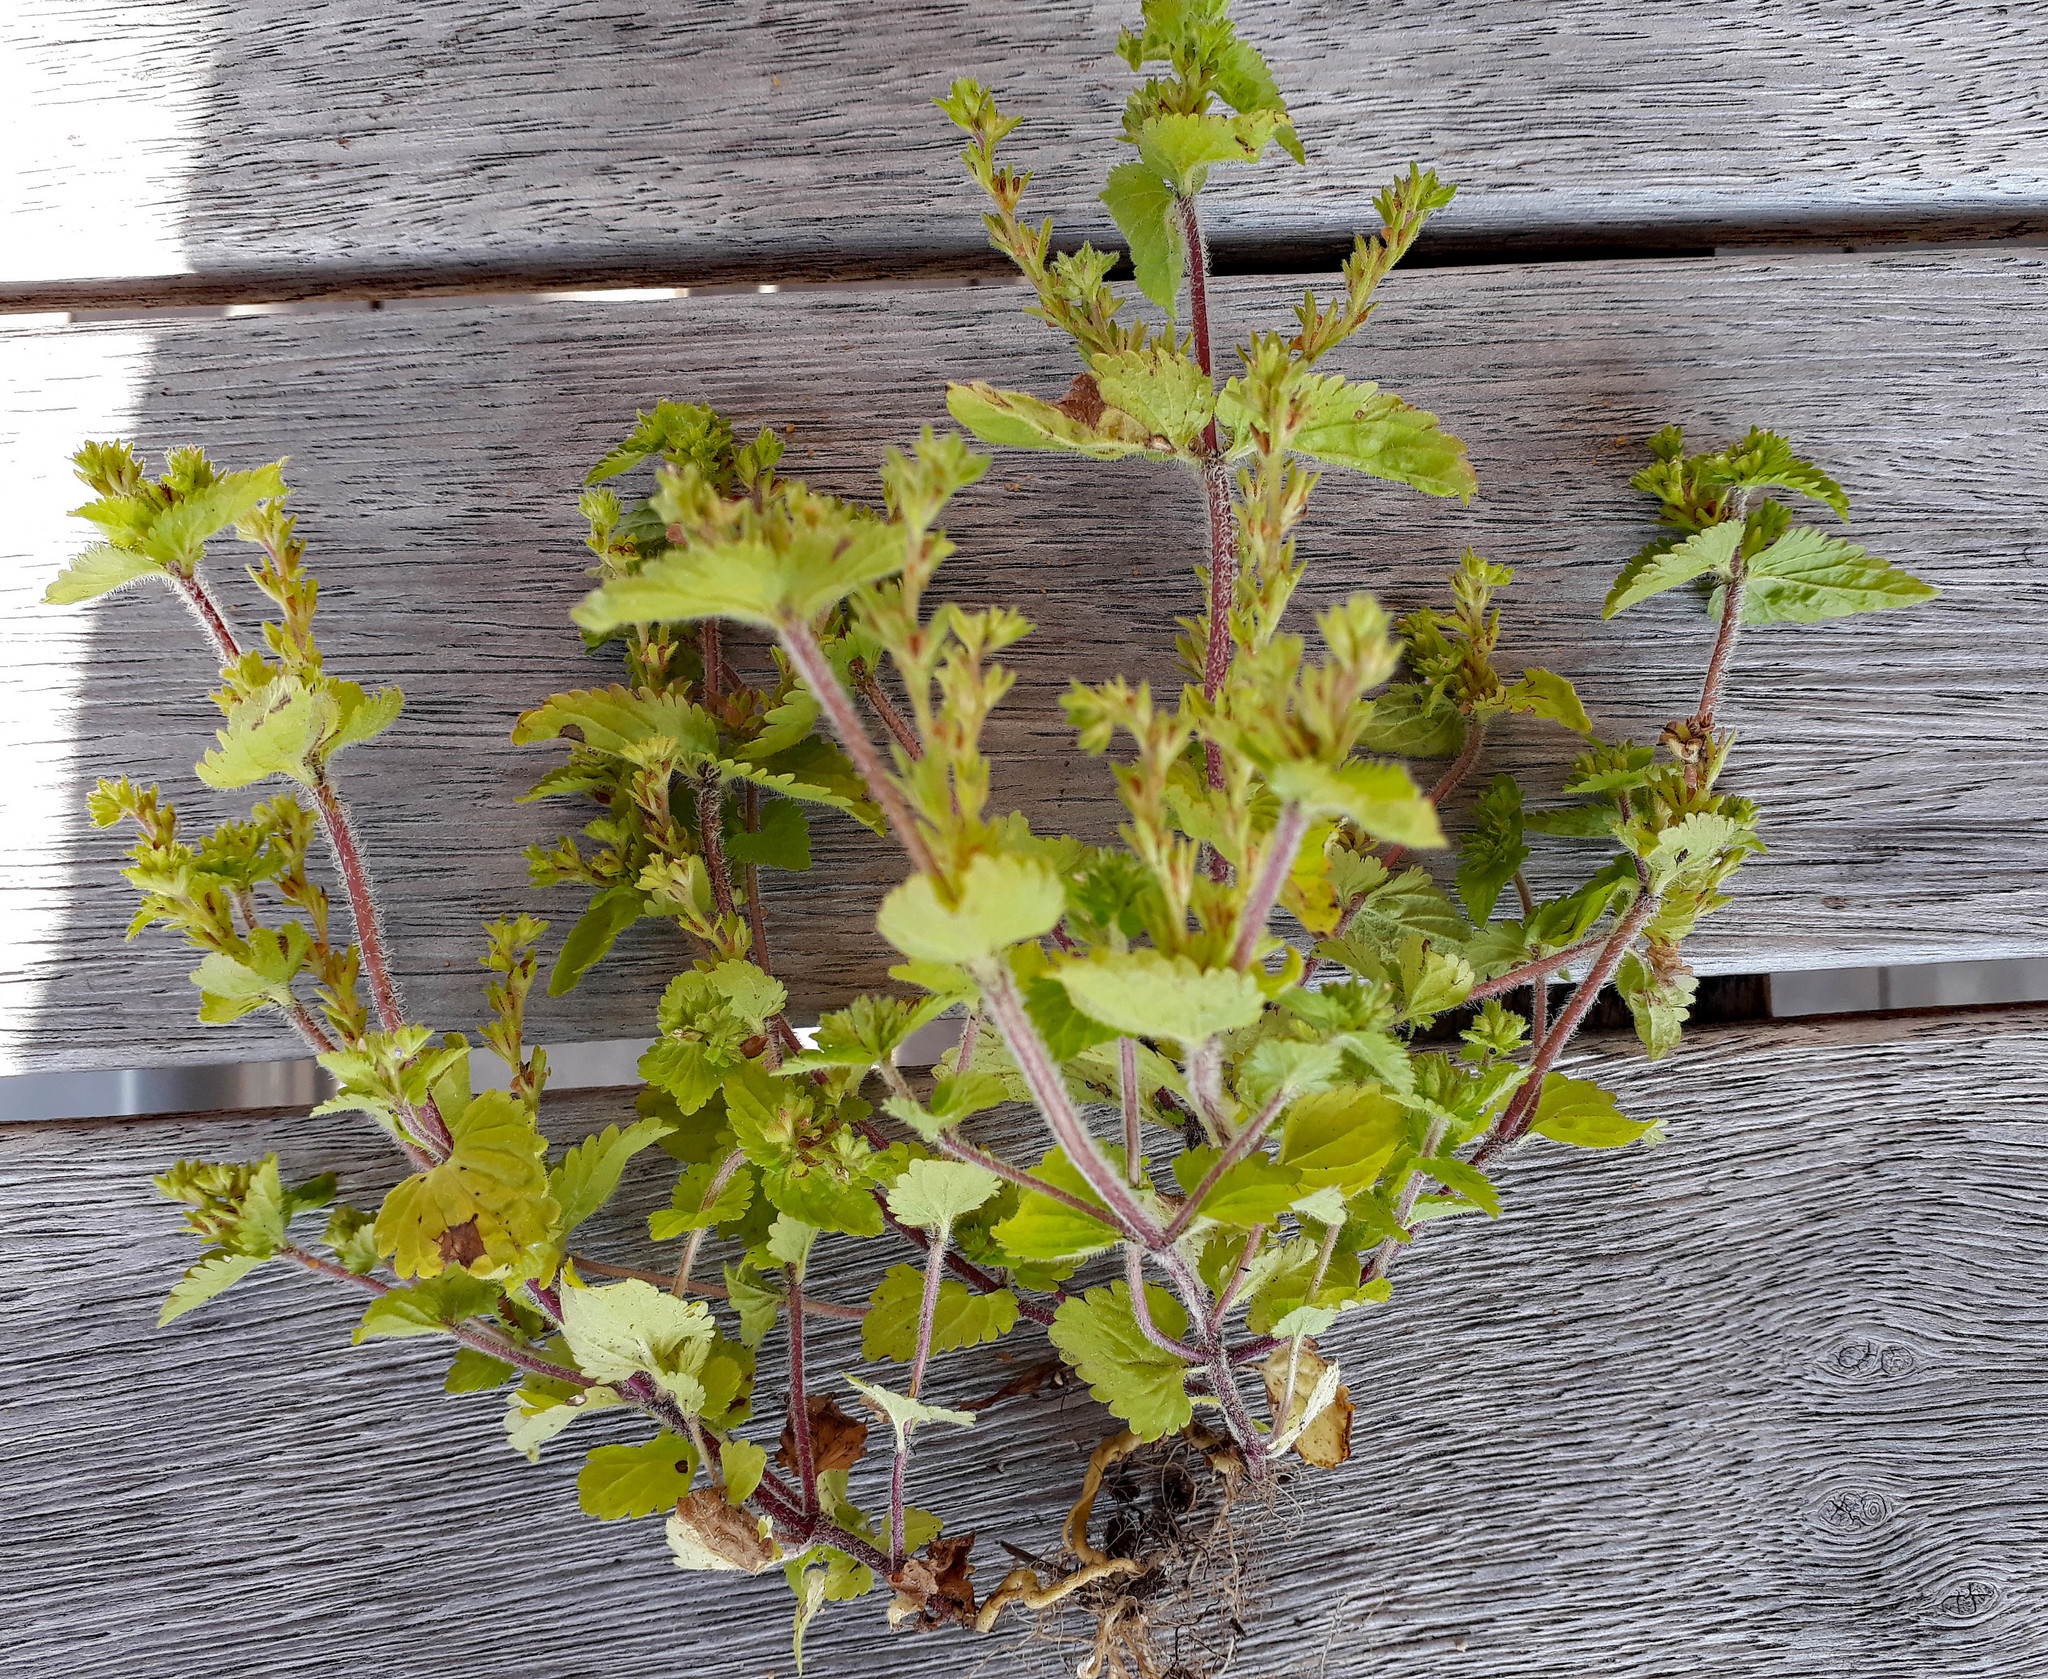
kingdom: Plantae
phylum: Tracheophyta
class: Magnoliopsida
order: Lamiales
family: Plantaginaceae
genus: Veronica
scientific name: Veronica javanica
